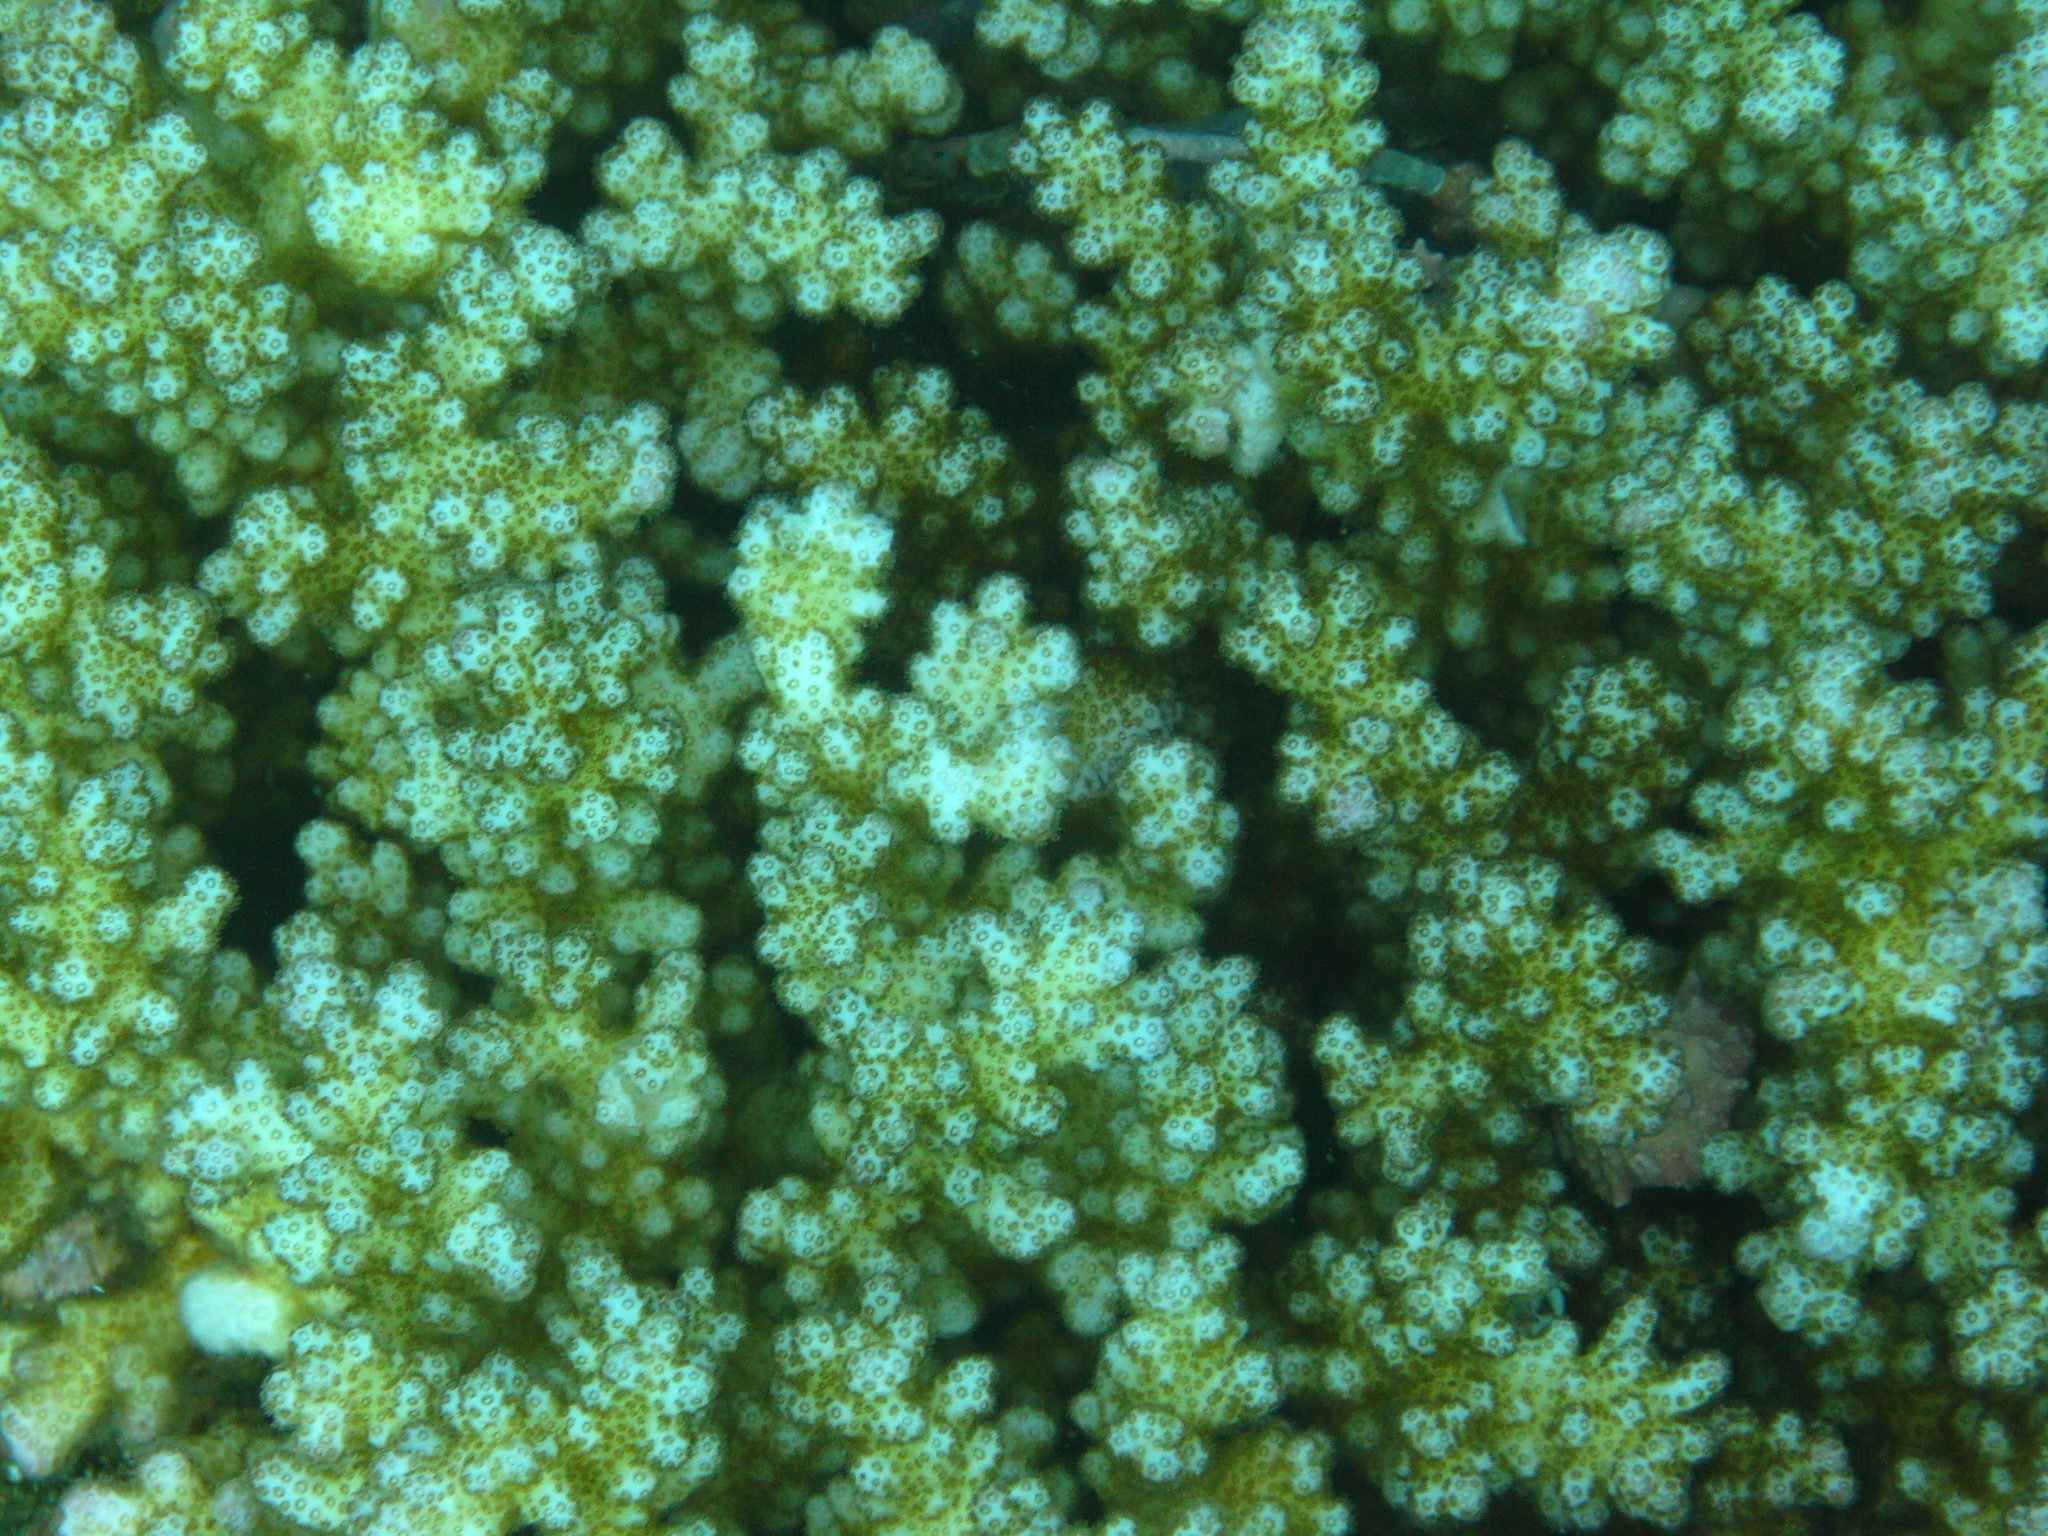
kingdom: Animalia
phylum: Cnidaria
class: Anthozoa
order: Scleractinia
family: Pocilloporidae
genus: Pocillopora
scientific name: Pocillopora damicornis
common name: Cauliflower coral
